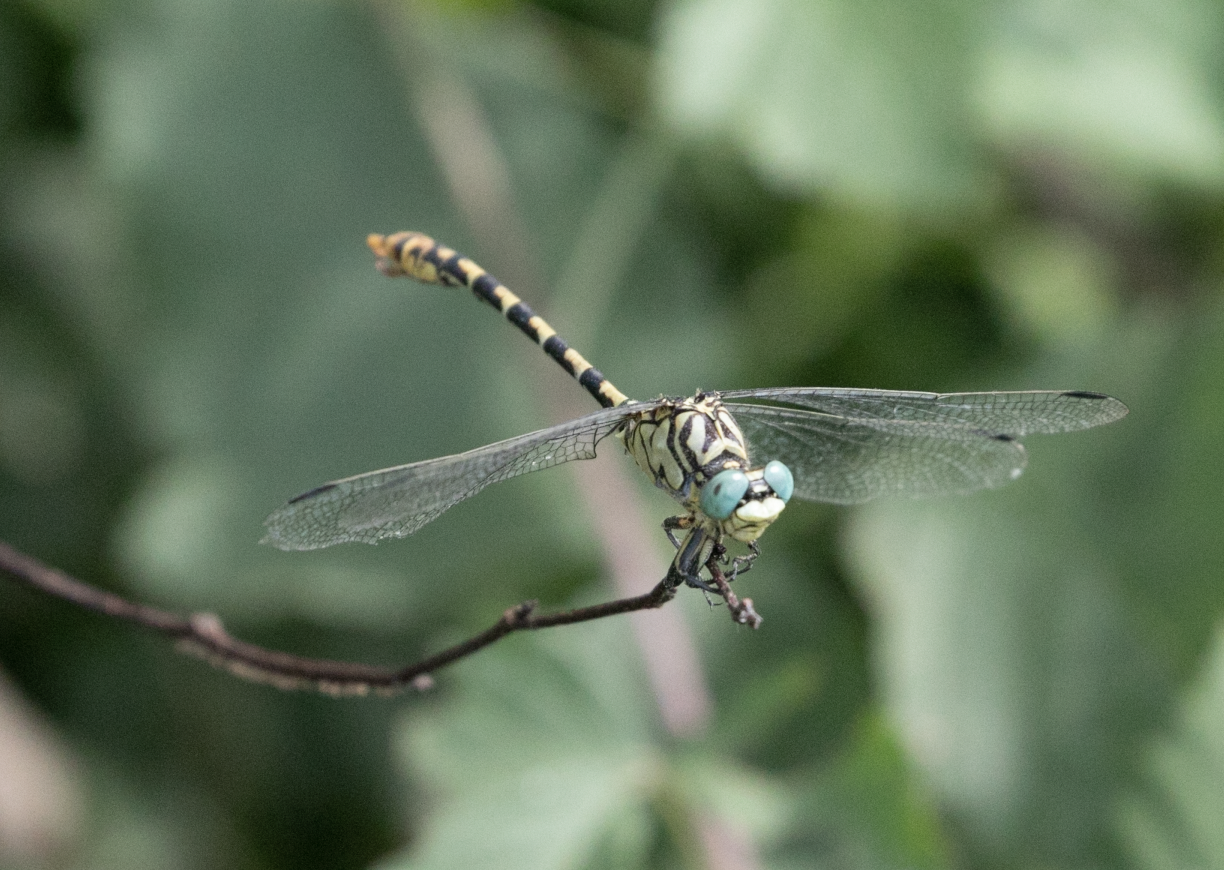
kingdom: Animalia
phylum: Arthropoda
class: Insecta
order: Odonata
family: Gomphidae
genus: Onychogomphus
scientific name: Onychogomphus forcipatus
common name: Small pincertail
